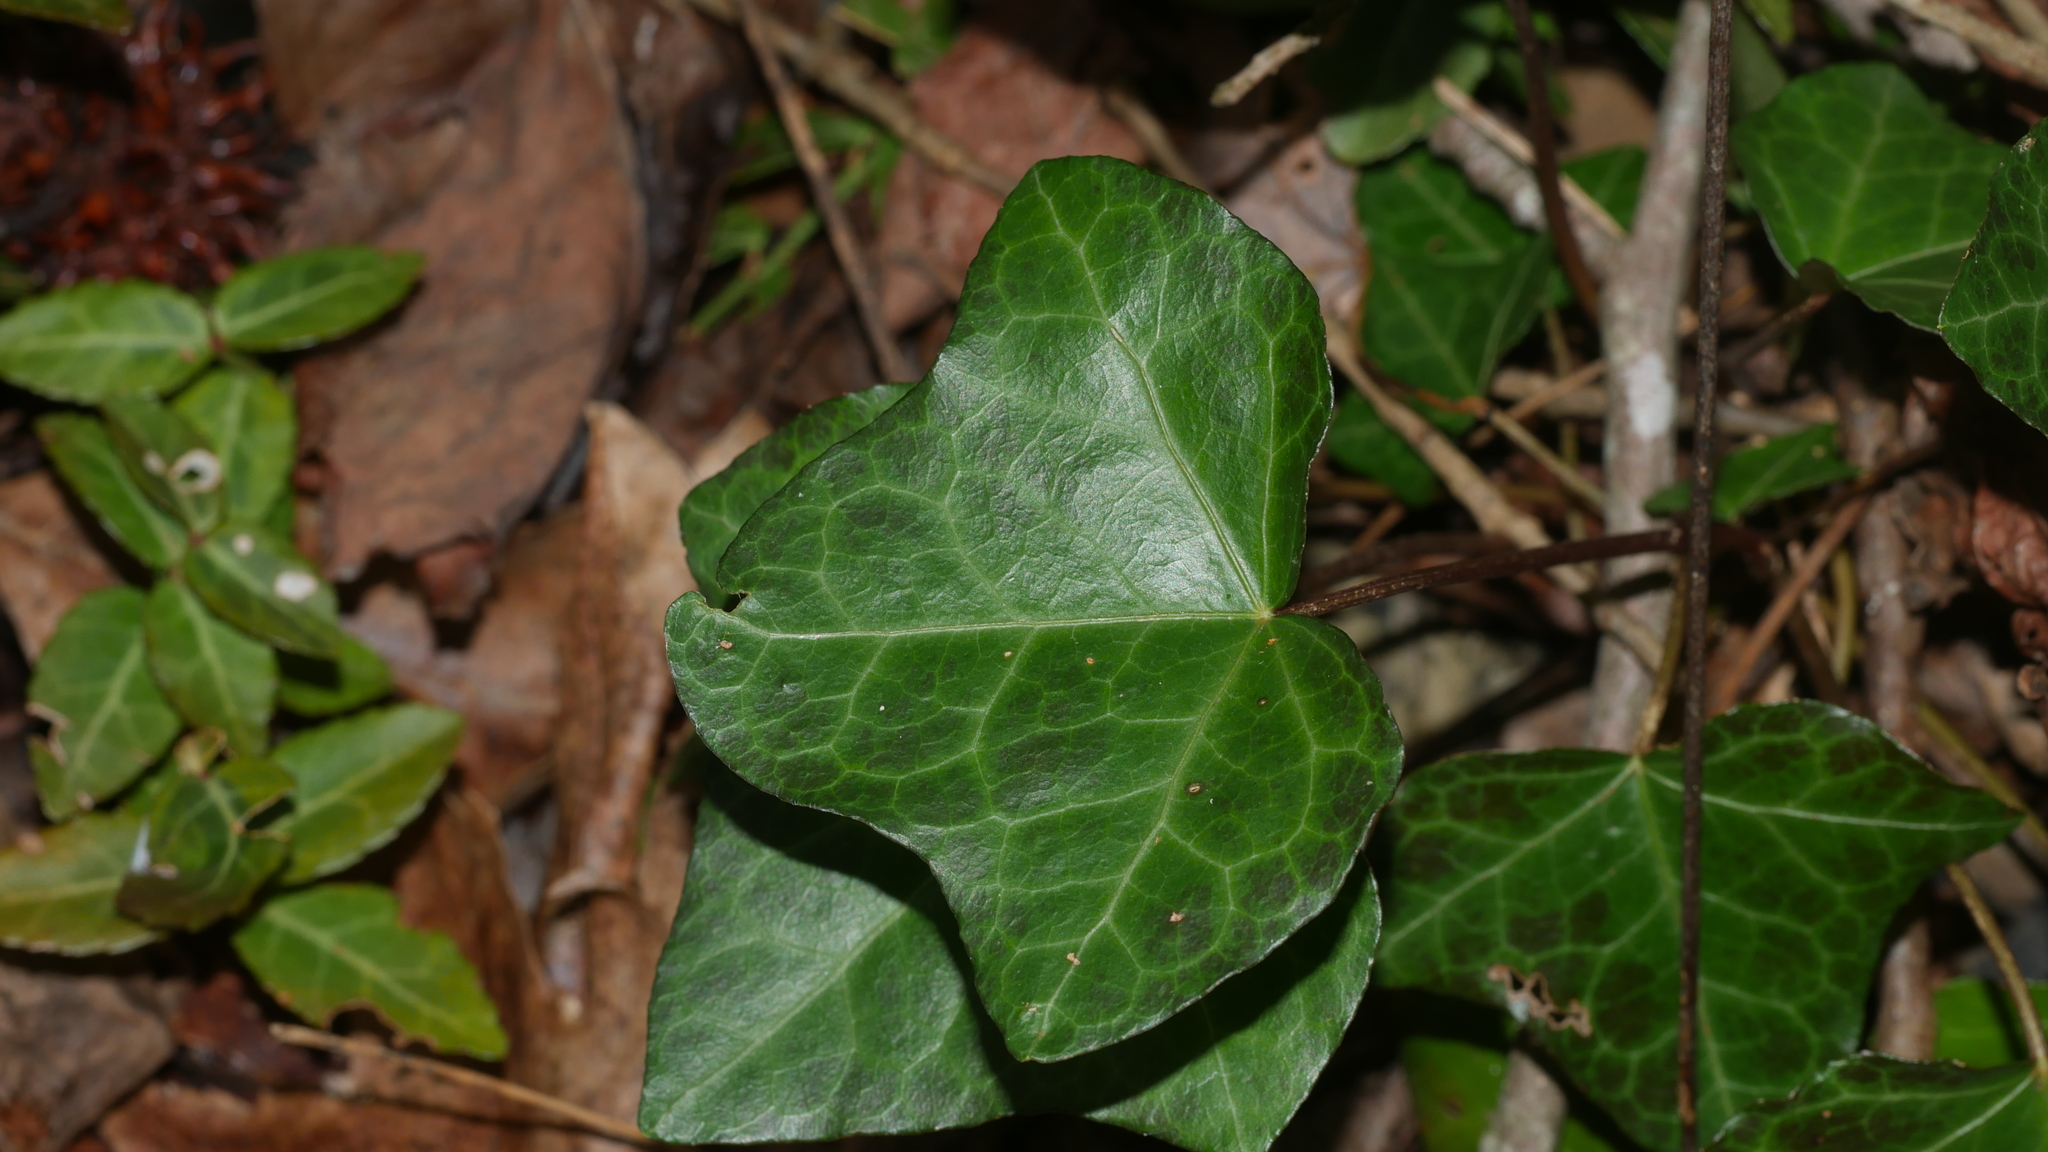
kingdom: Plantae
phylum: Tracheophyta
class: Magnoliopsida
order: Apiales
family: Araliaceae
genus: Hedera
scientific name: Hedera helix
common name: Ivy
